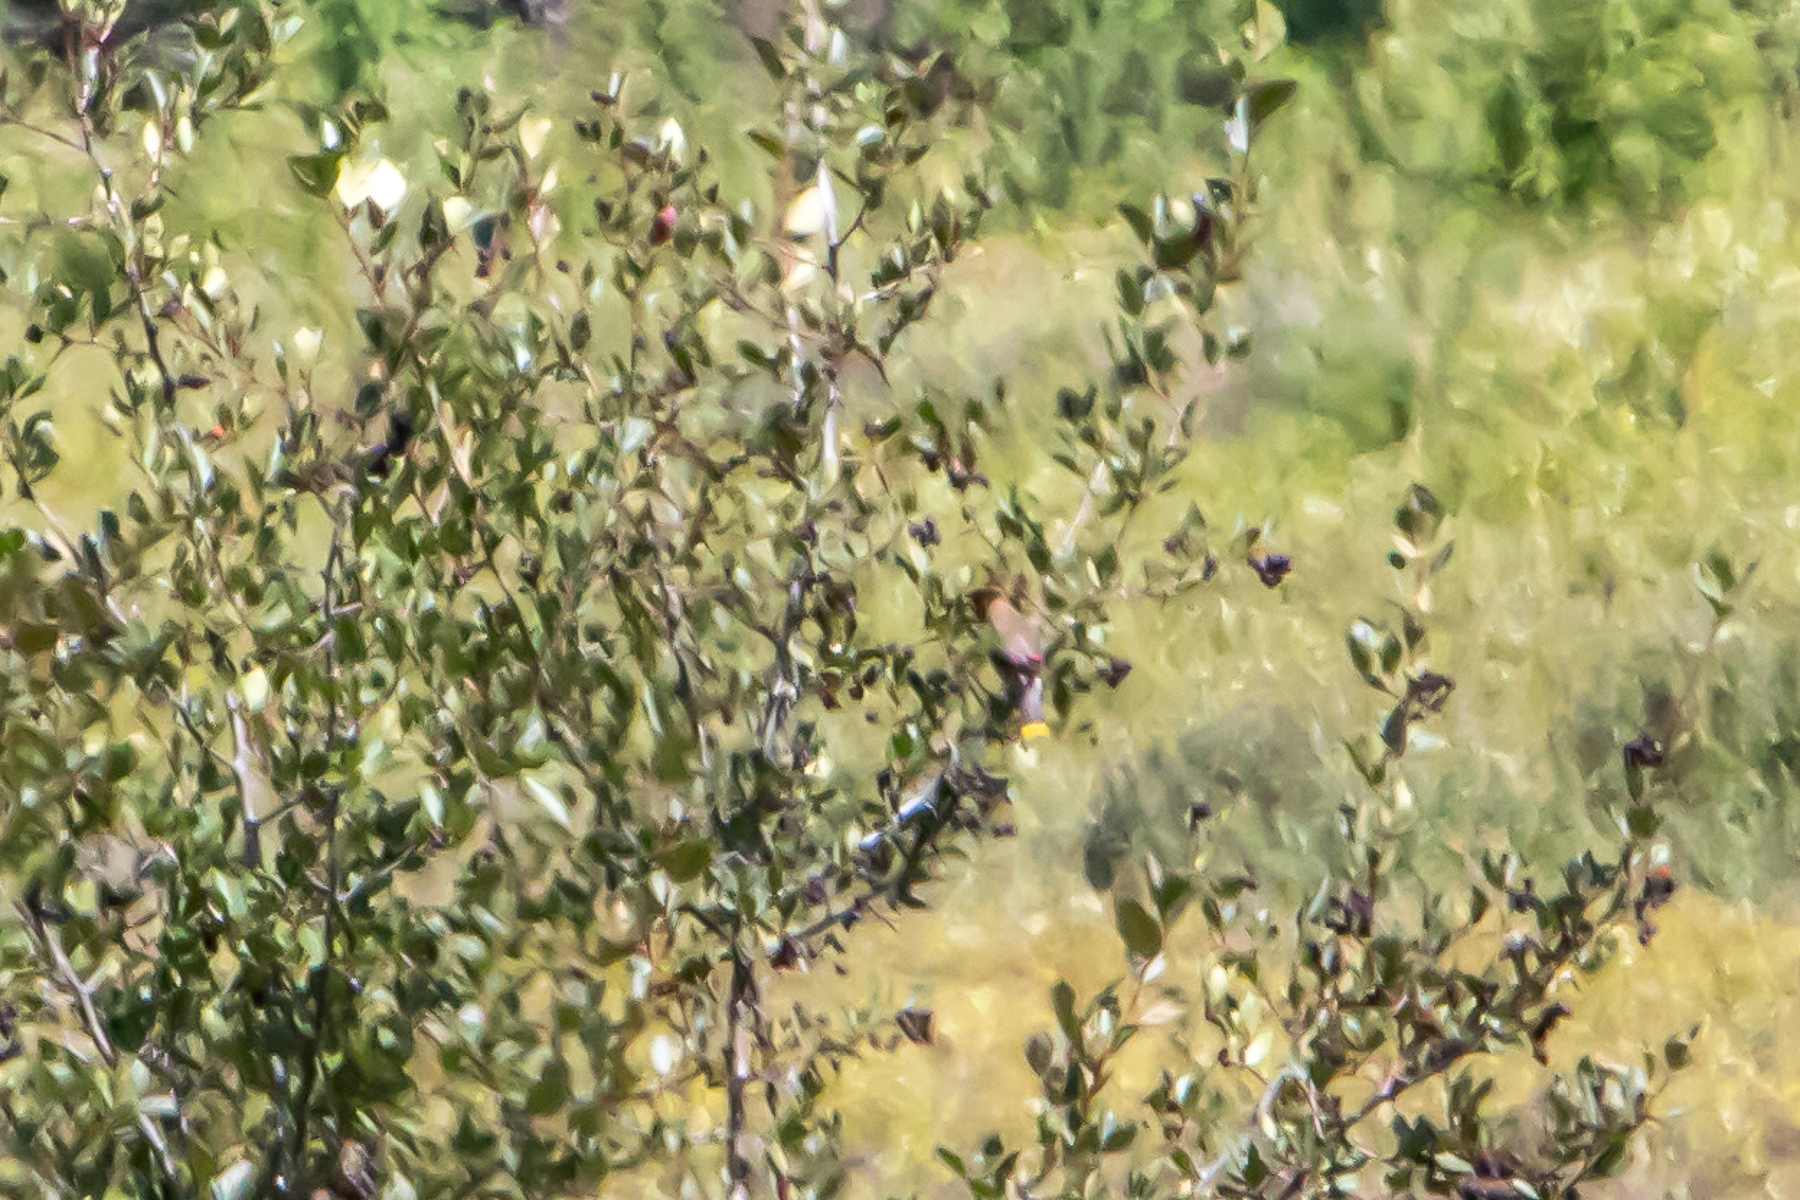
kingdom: Animalia
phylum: Chordata
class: Aves
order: Passeriformes
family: Bombycillidae
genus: Bombycilla
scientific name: Bombycilla cedrorum
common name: Cedar waxwing
